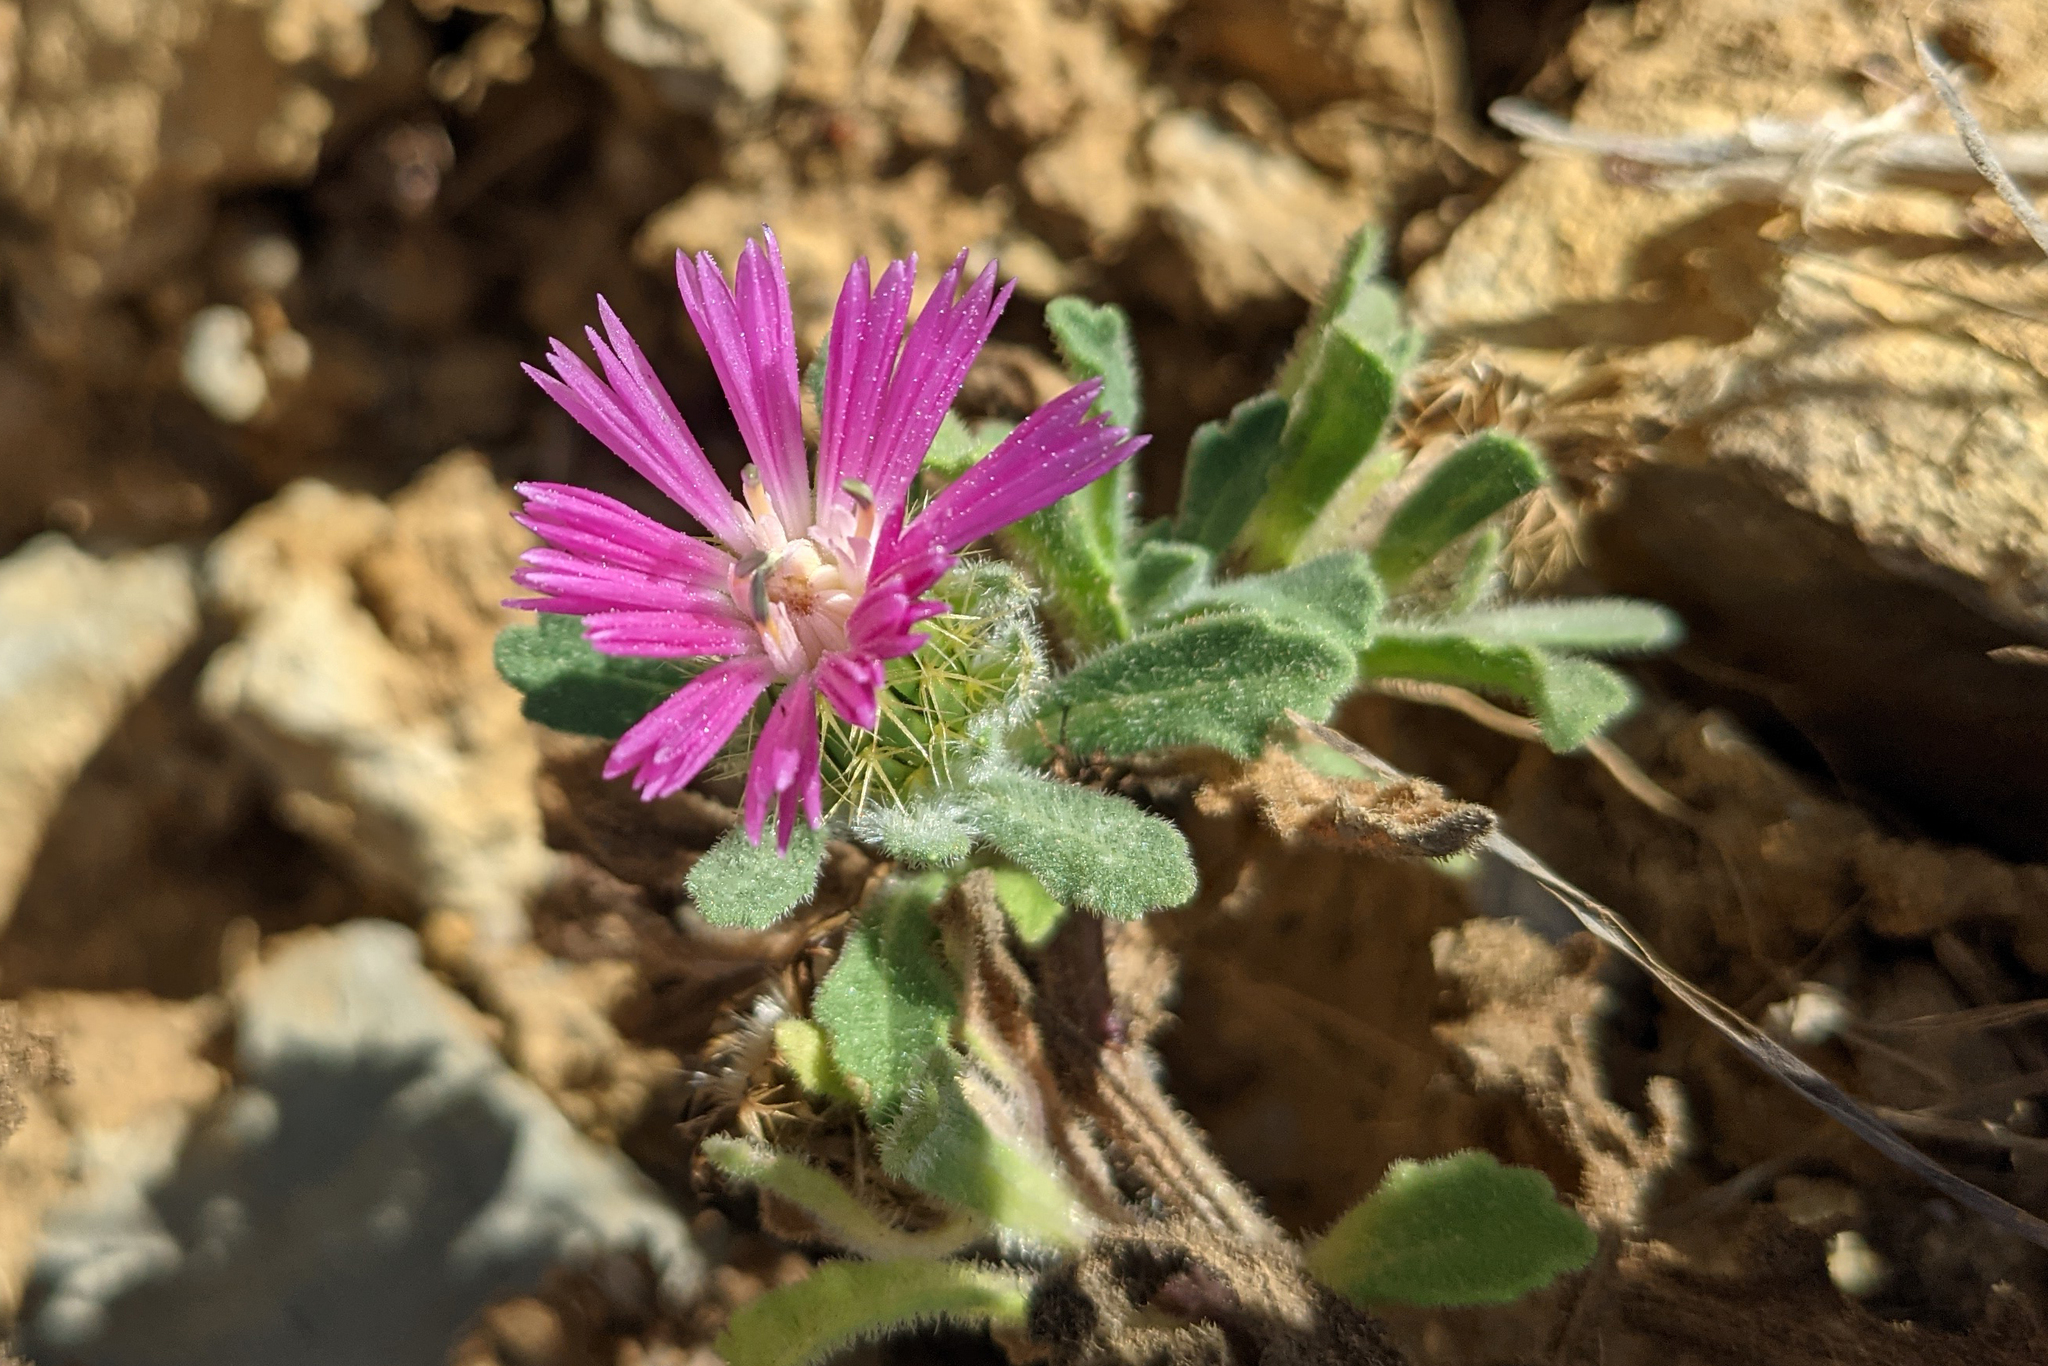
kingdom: Plantae
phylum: Tracheophyta
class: Magnoliopsida
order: Asterales
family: Asteraceae
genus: Centaurea
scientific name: Centaurea pullata
